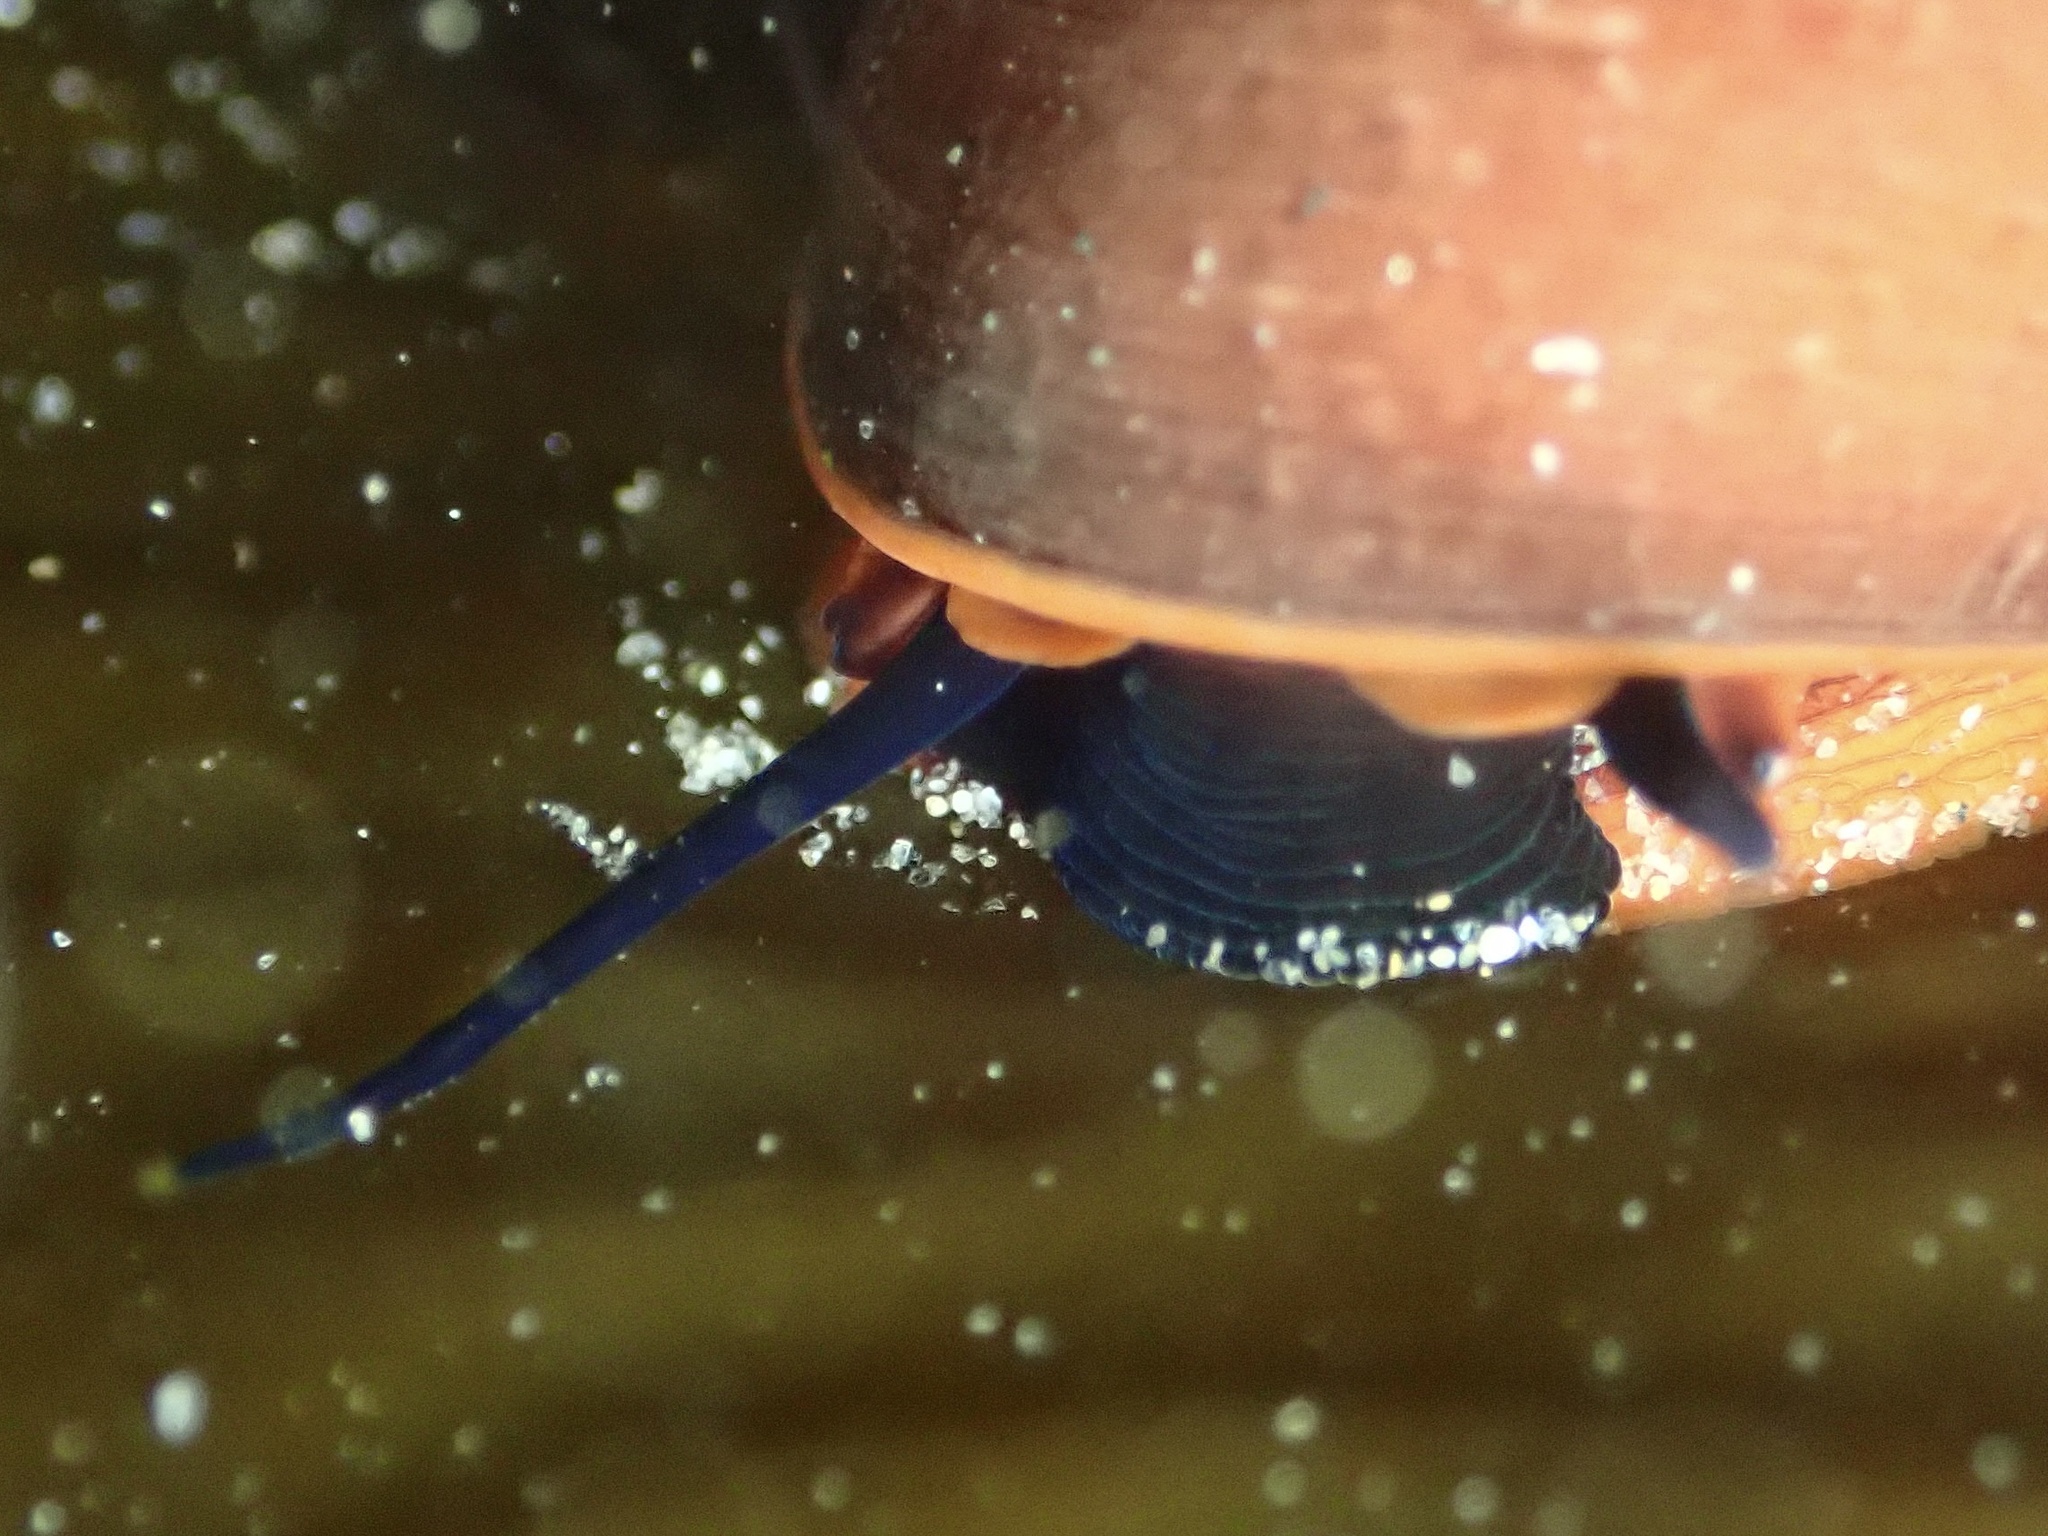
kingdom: Animalia
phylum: Mollusca
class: Gastropoda
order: Trochida
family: Tegulidae
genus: Norrisia
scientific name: Norrisia norrisii
